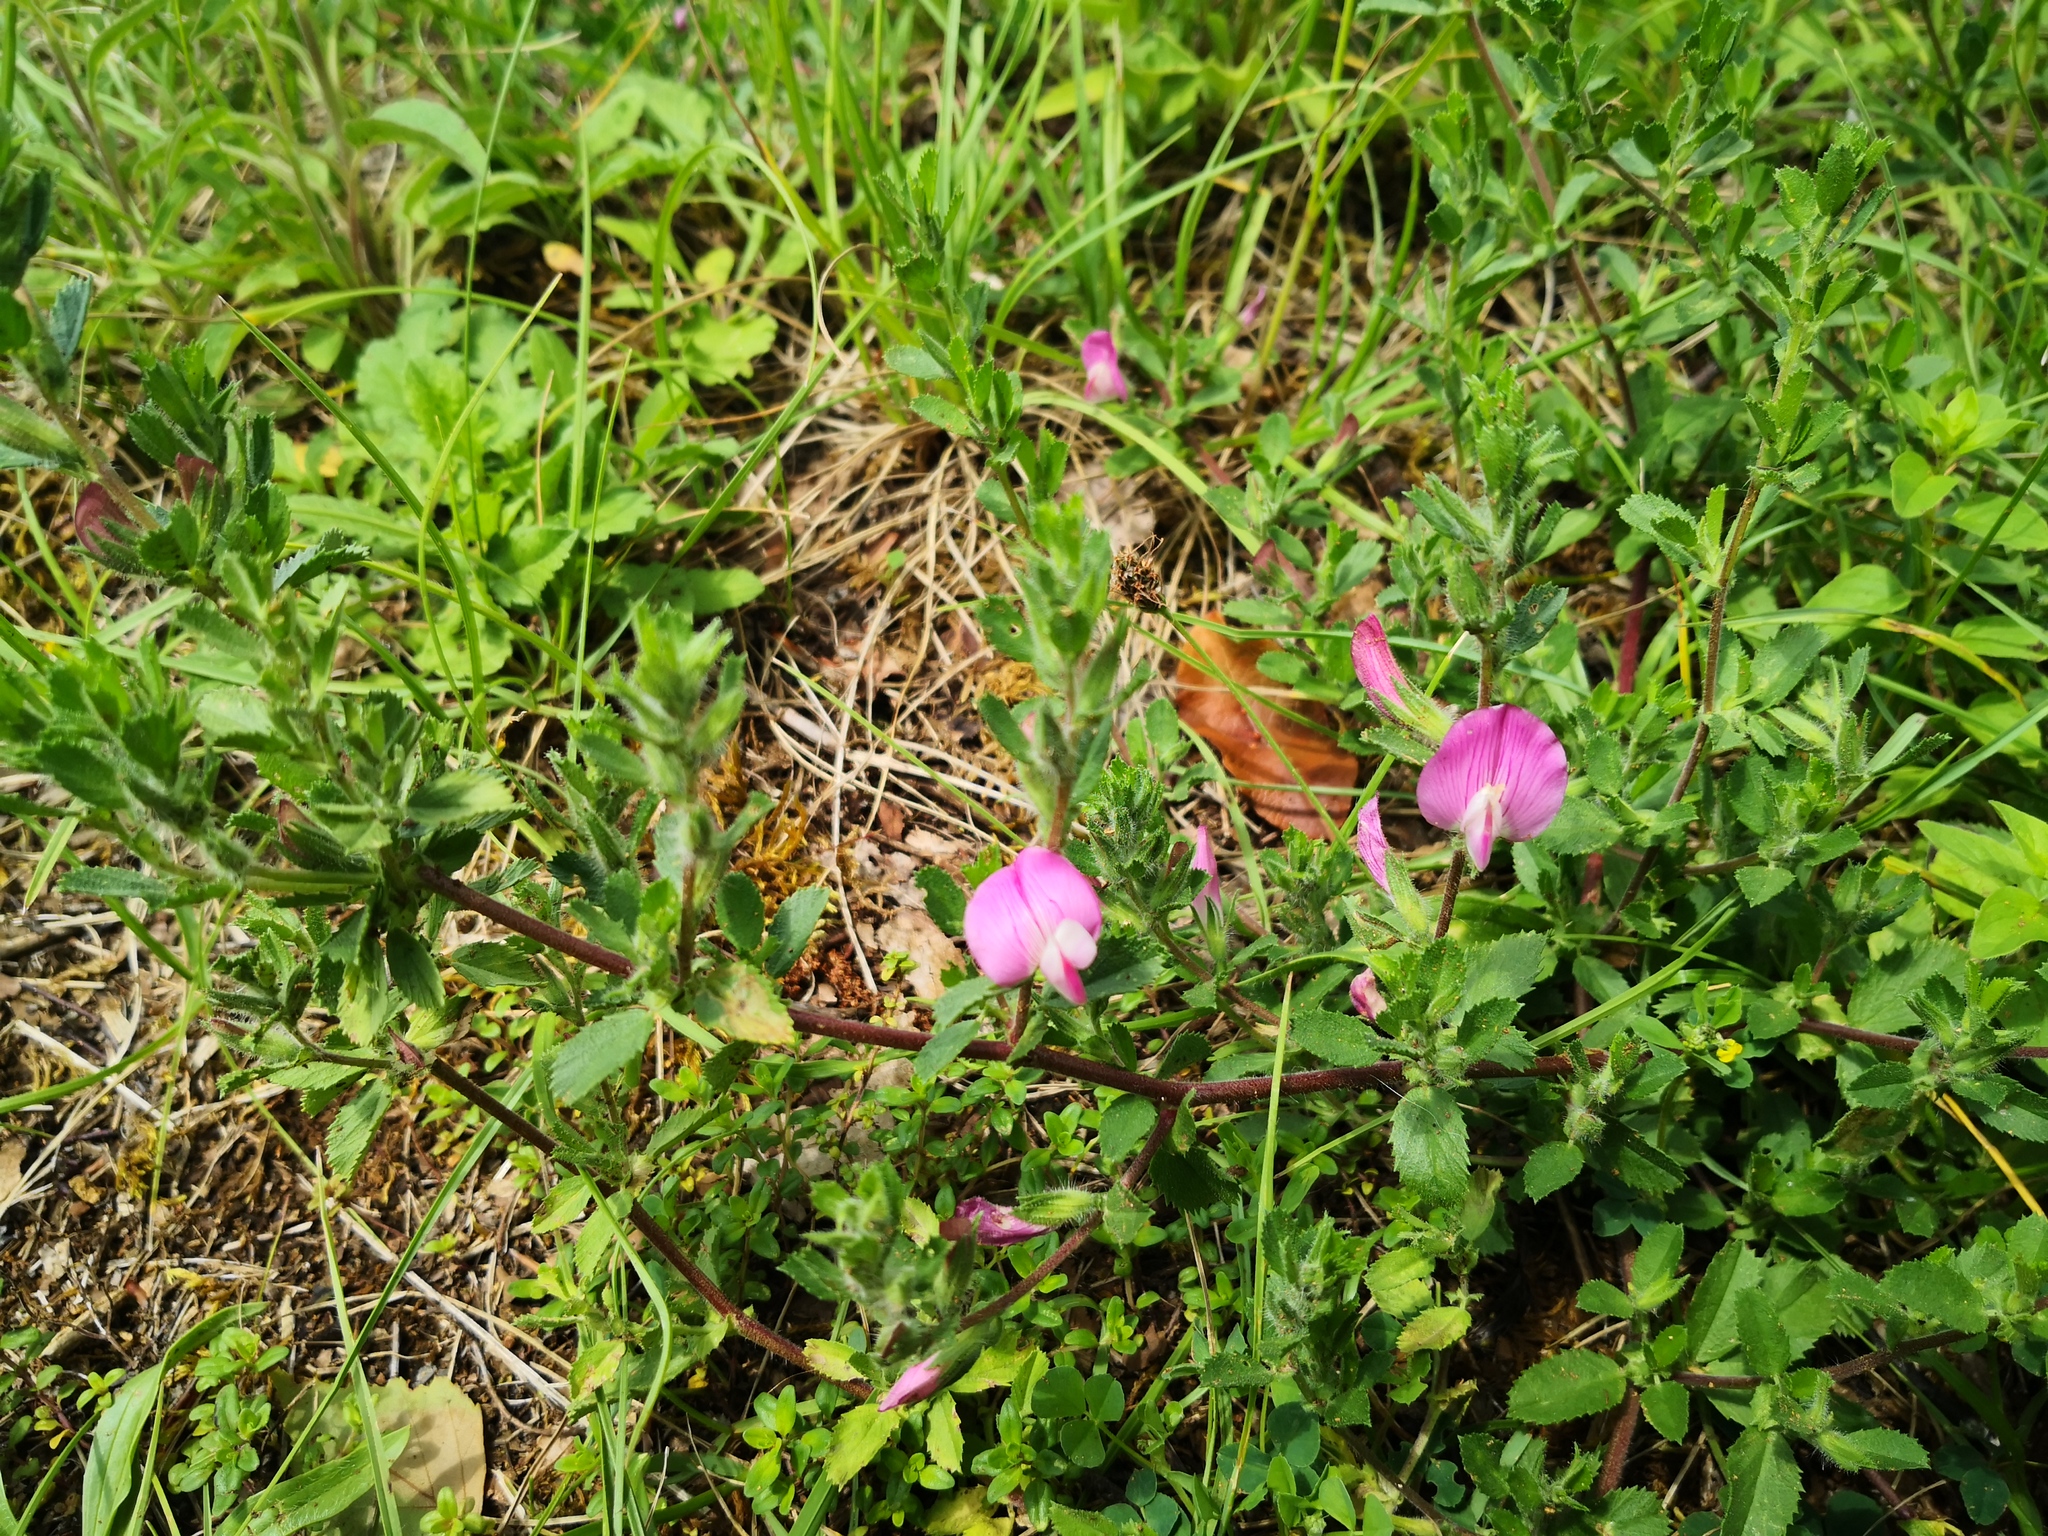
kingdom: Plantae
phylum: Tracheophyta
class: Magnoliopsida
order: Fabales
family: Fabaceae
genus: Ononis
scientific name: Ononis spinosa
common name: Spiny restharrow
